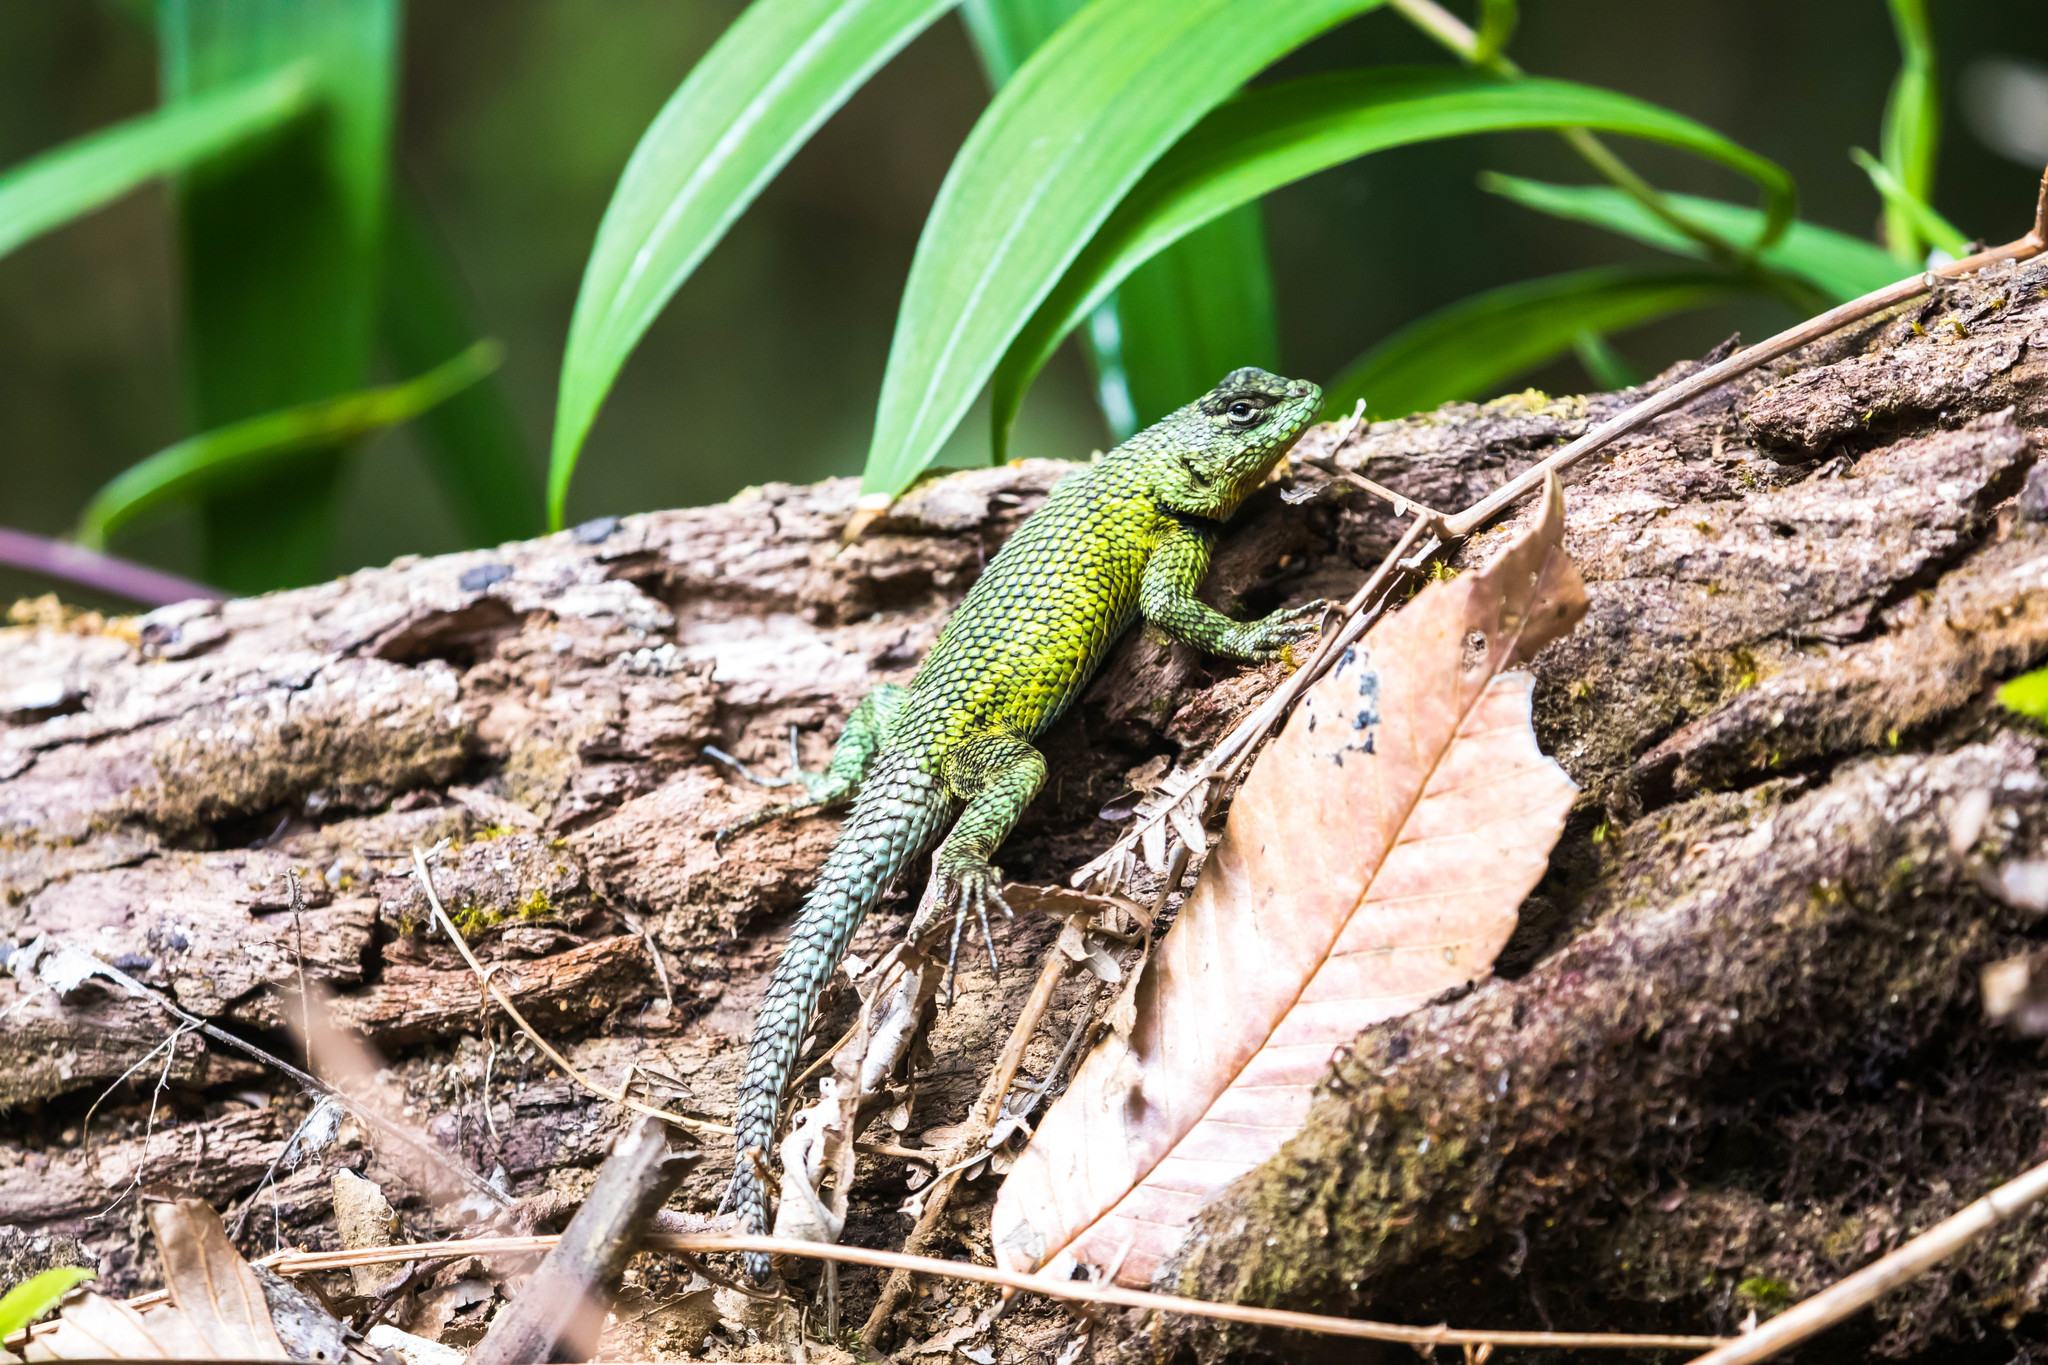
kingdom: Animalia
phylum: Chordata
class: Squamata
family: Phrynosomatidae
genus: Sceloporus
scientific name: Sceloporus malachiticus
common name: Green spiny lizard
